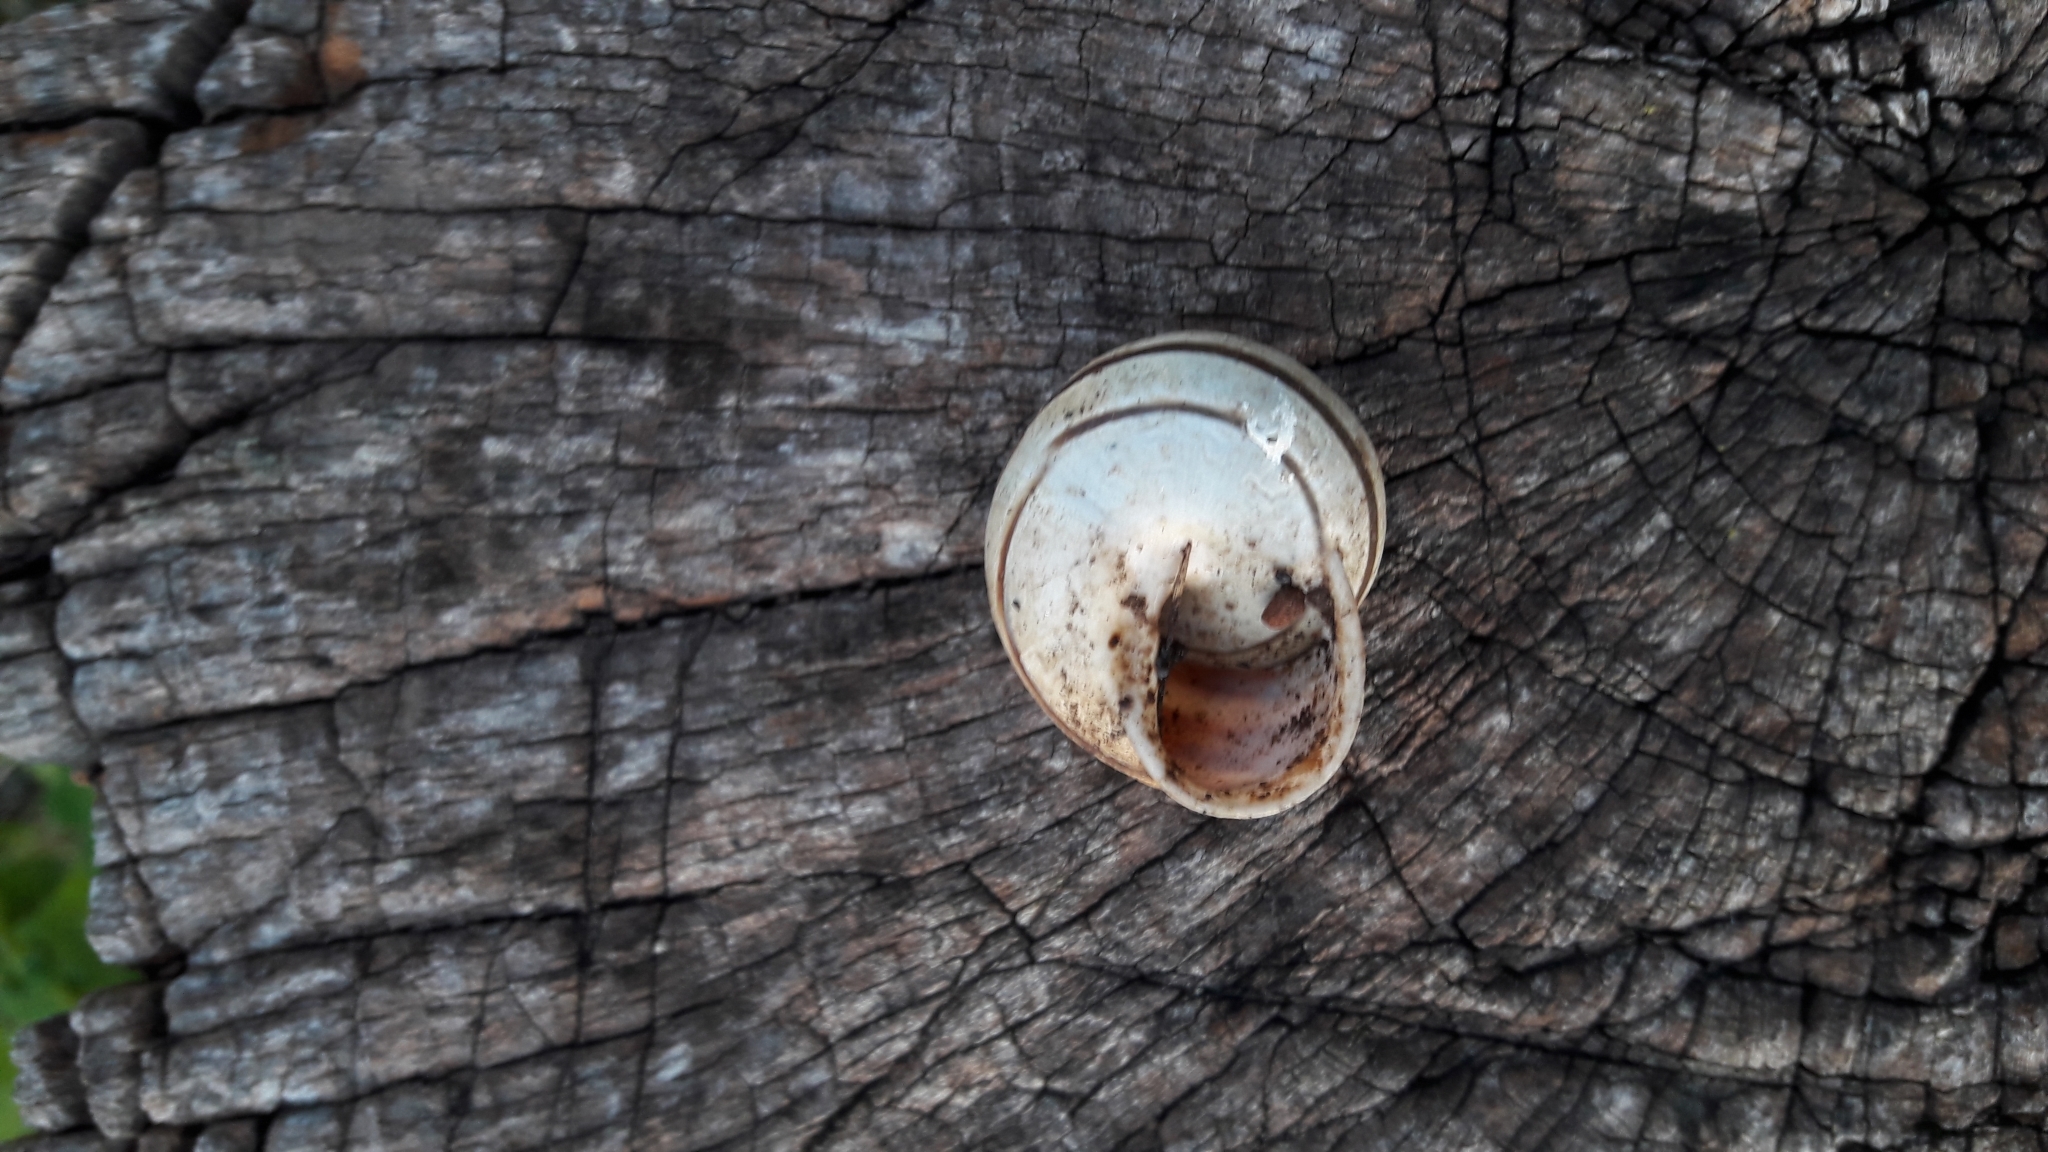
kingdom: Animalia
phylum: Mollusca
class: Gastropoda
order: Stylommatophora
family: Helicidae
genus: Eobania
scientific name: Eobania vermiculata
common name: Chocolateband snail
